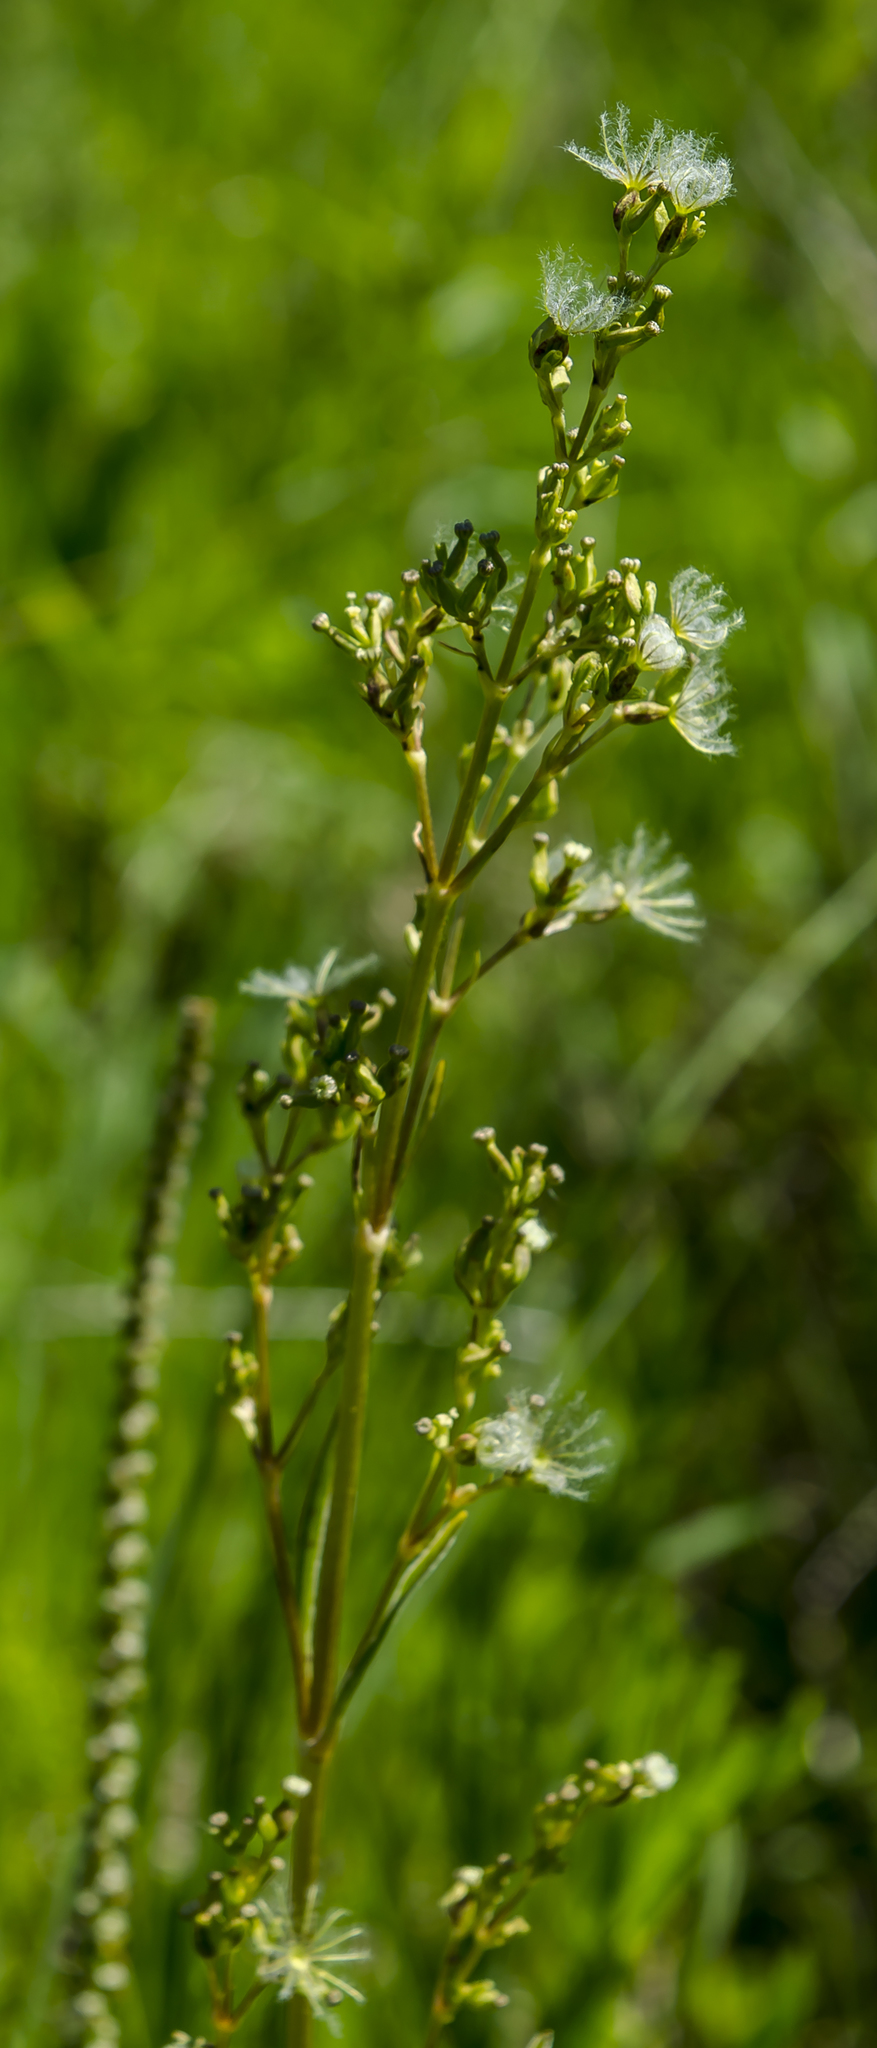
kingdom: Plantae
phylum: Tracheophyta
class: Magnoliopsida
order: Dipsacales
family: Caprifoliaceae
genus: Valeriana
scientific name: Valeriana edulis
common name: Taproot valerian
